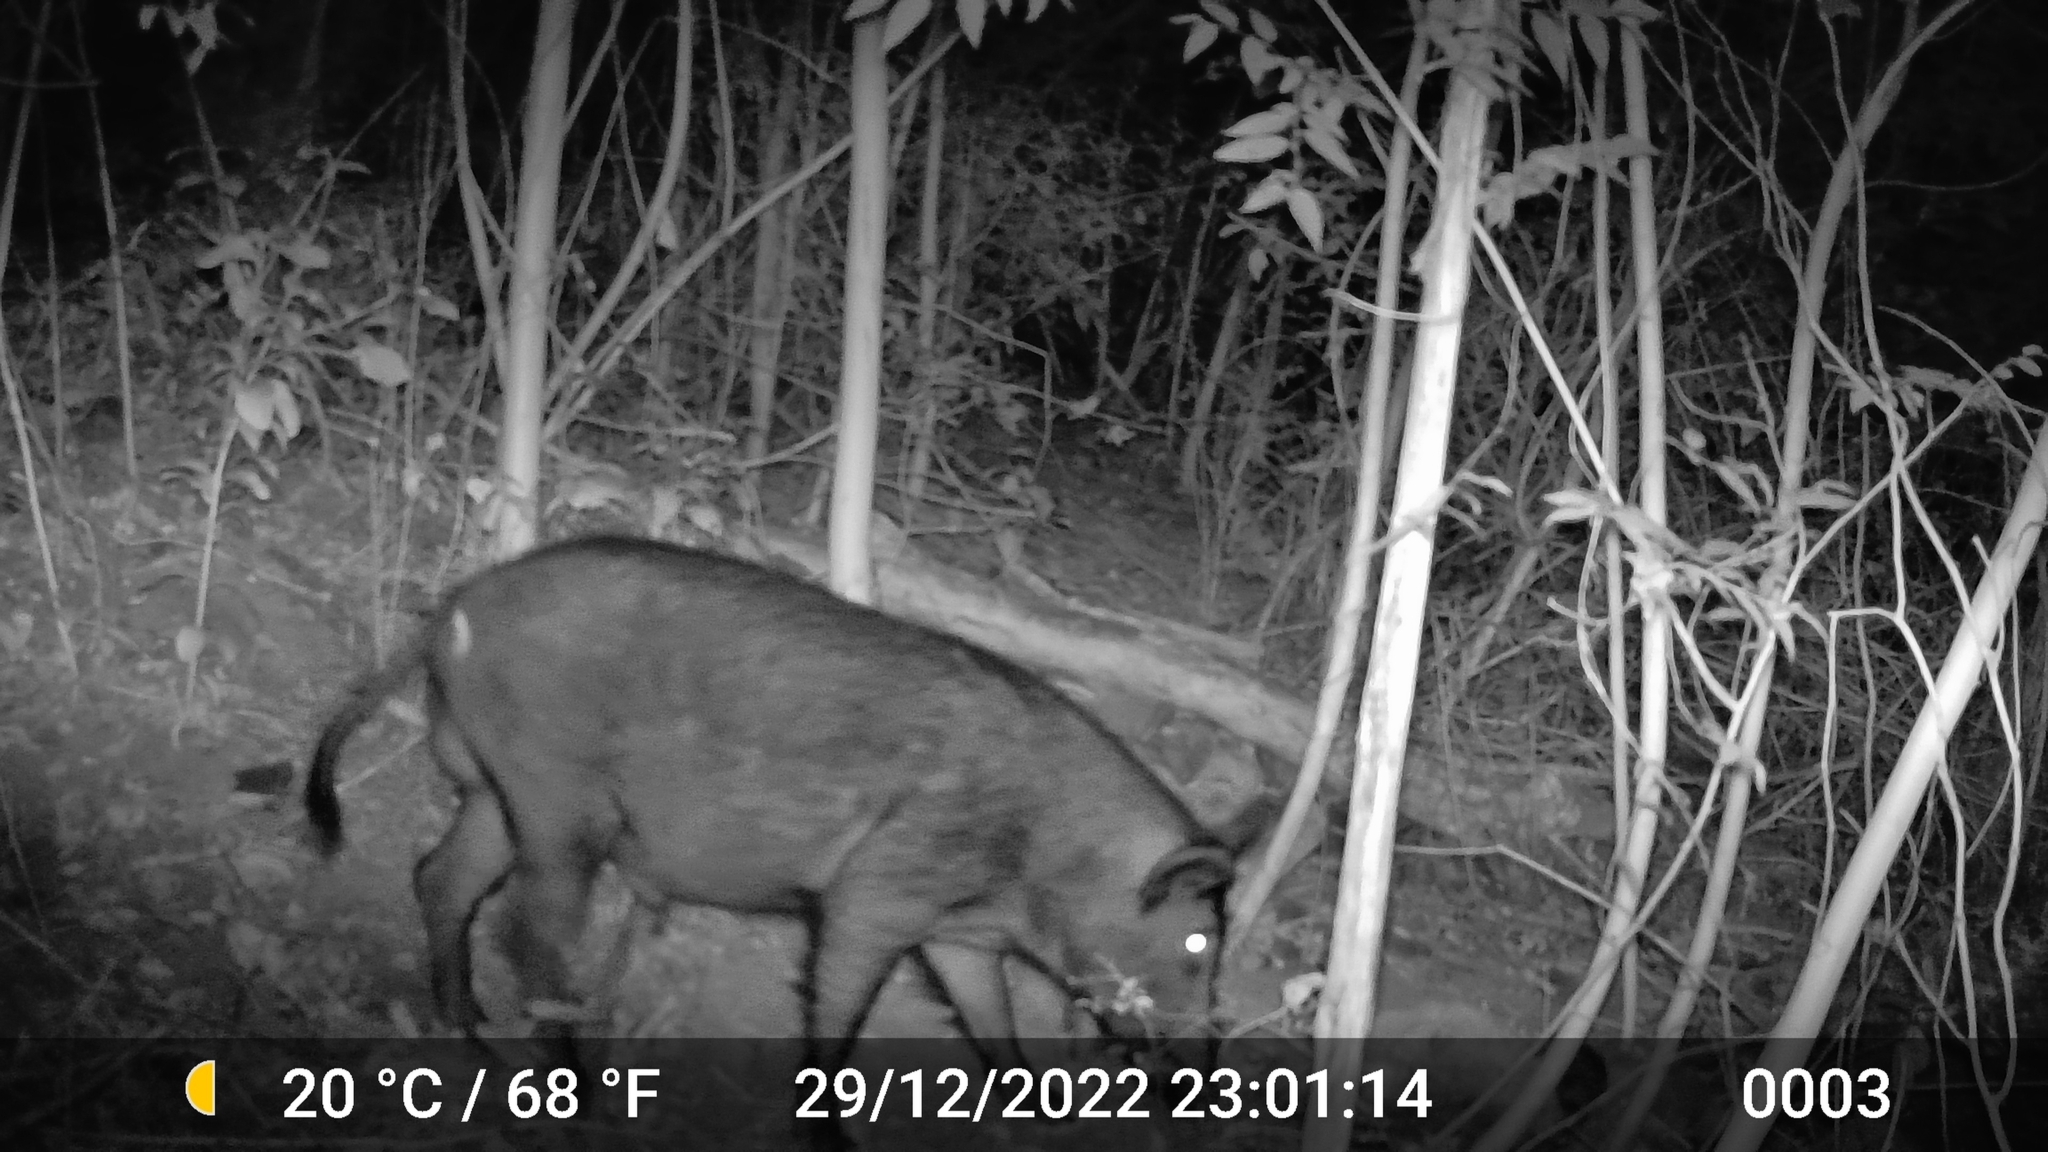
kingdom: Animalia
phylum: Chordata
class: Mammalia
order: Artiodactyla
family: Suidae
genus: Sus
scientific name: Sus scrofa
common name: Wild boar
